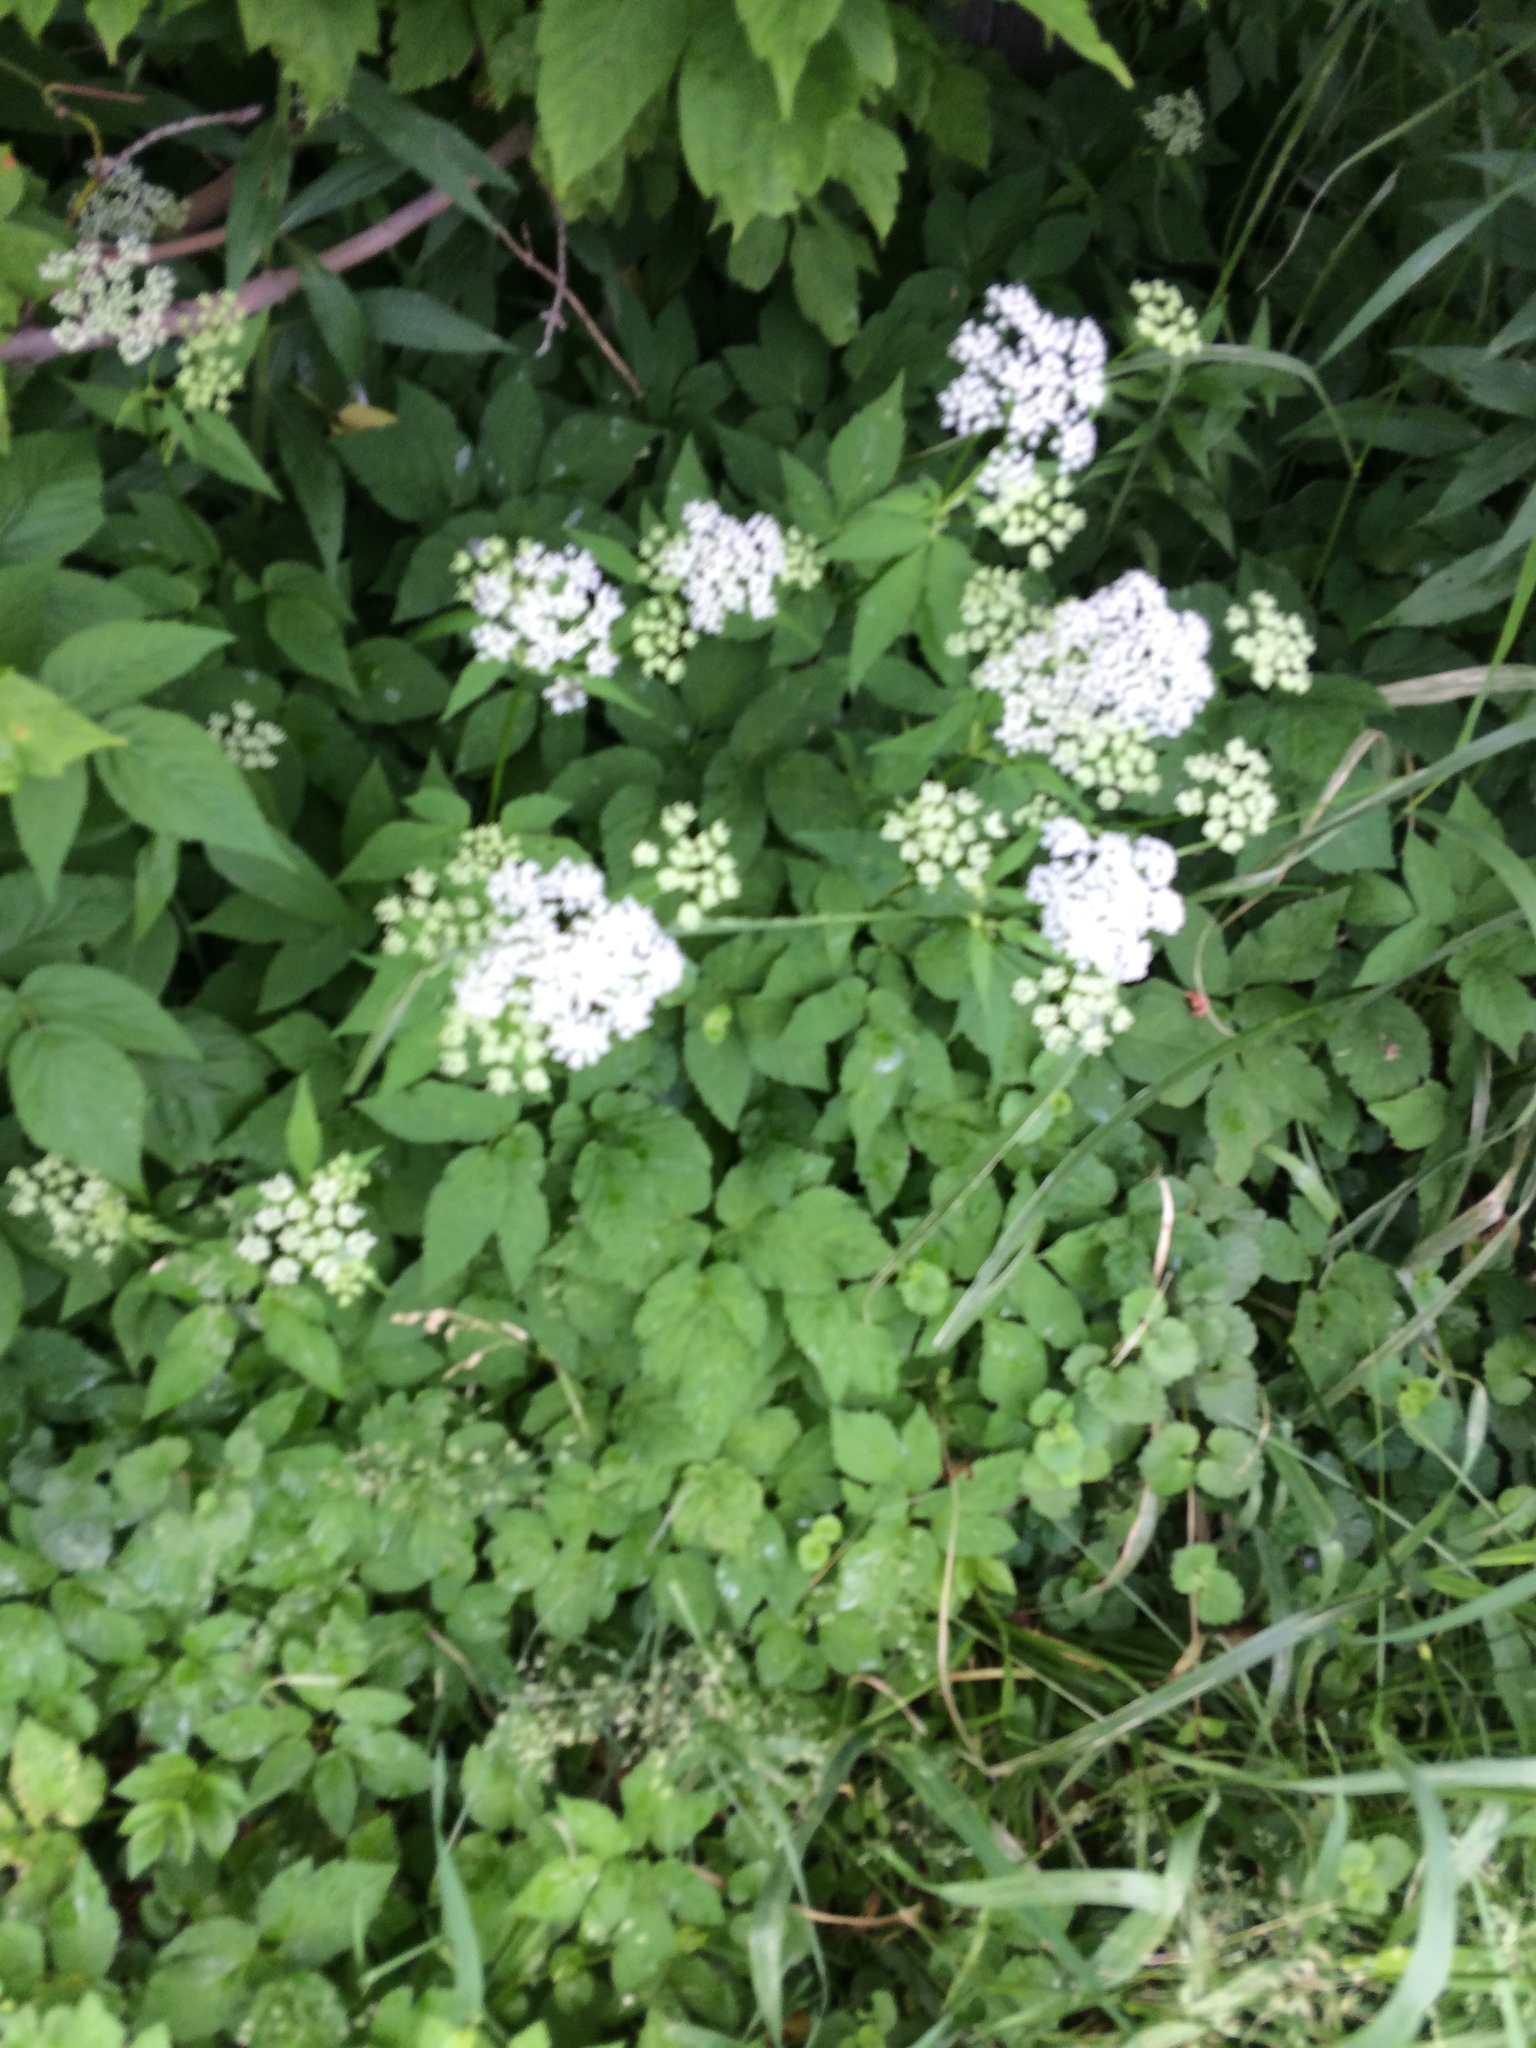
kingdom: Plantae
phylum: Tracheophyta
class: Magnoliopsida
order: Apiales
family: Apiaceae
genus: Aegopodium
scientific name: Aegopodium podagraria
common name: Ground-elder
